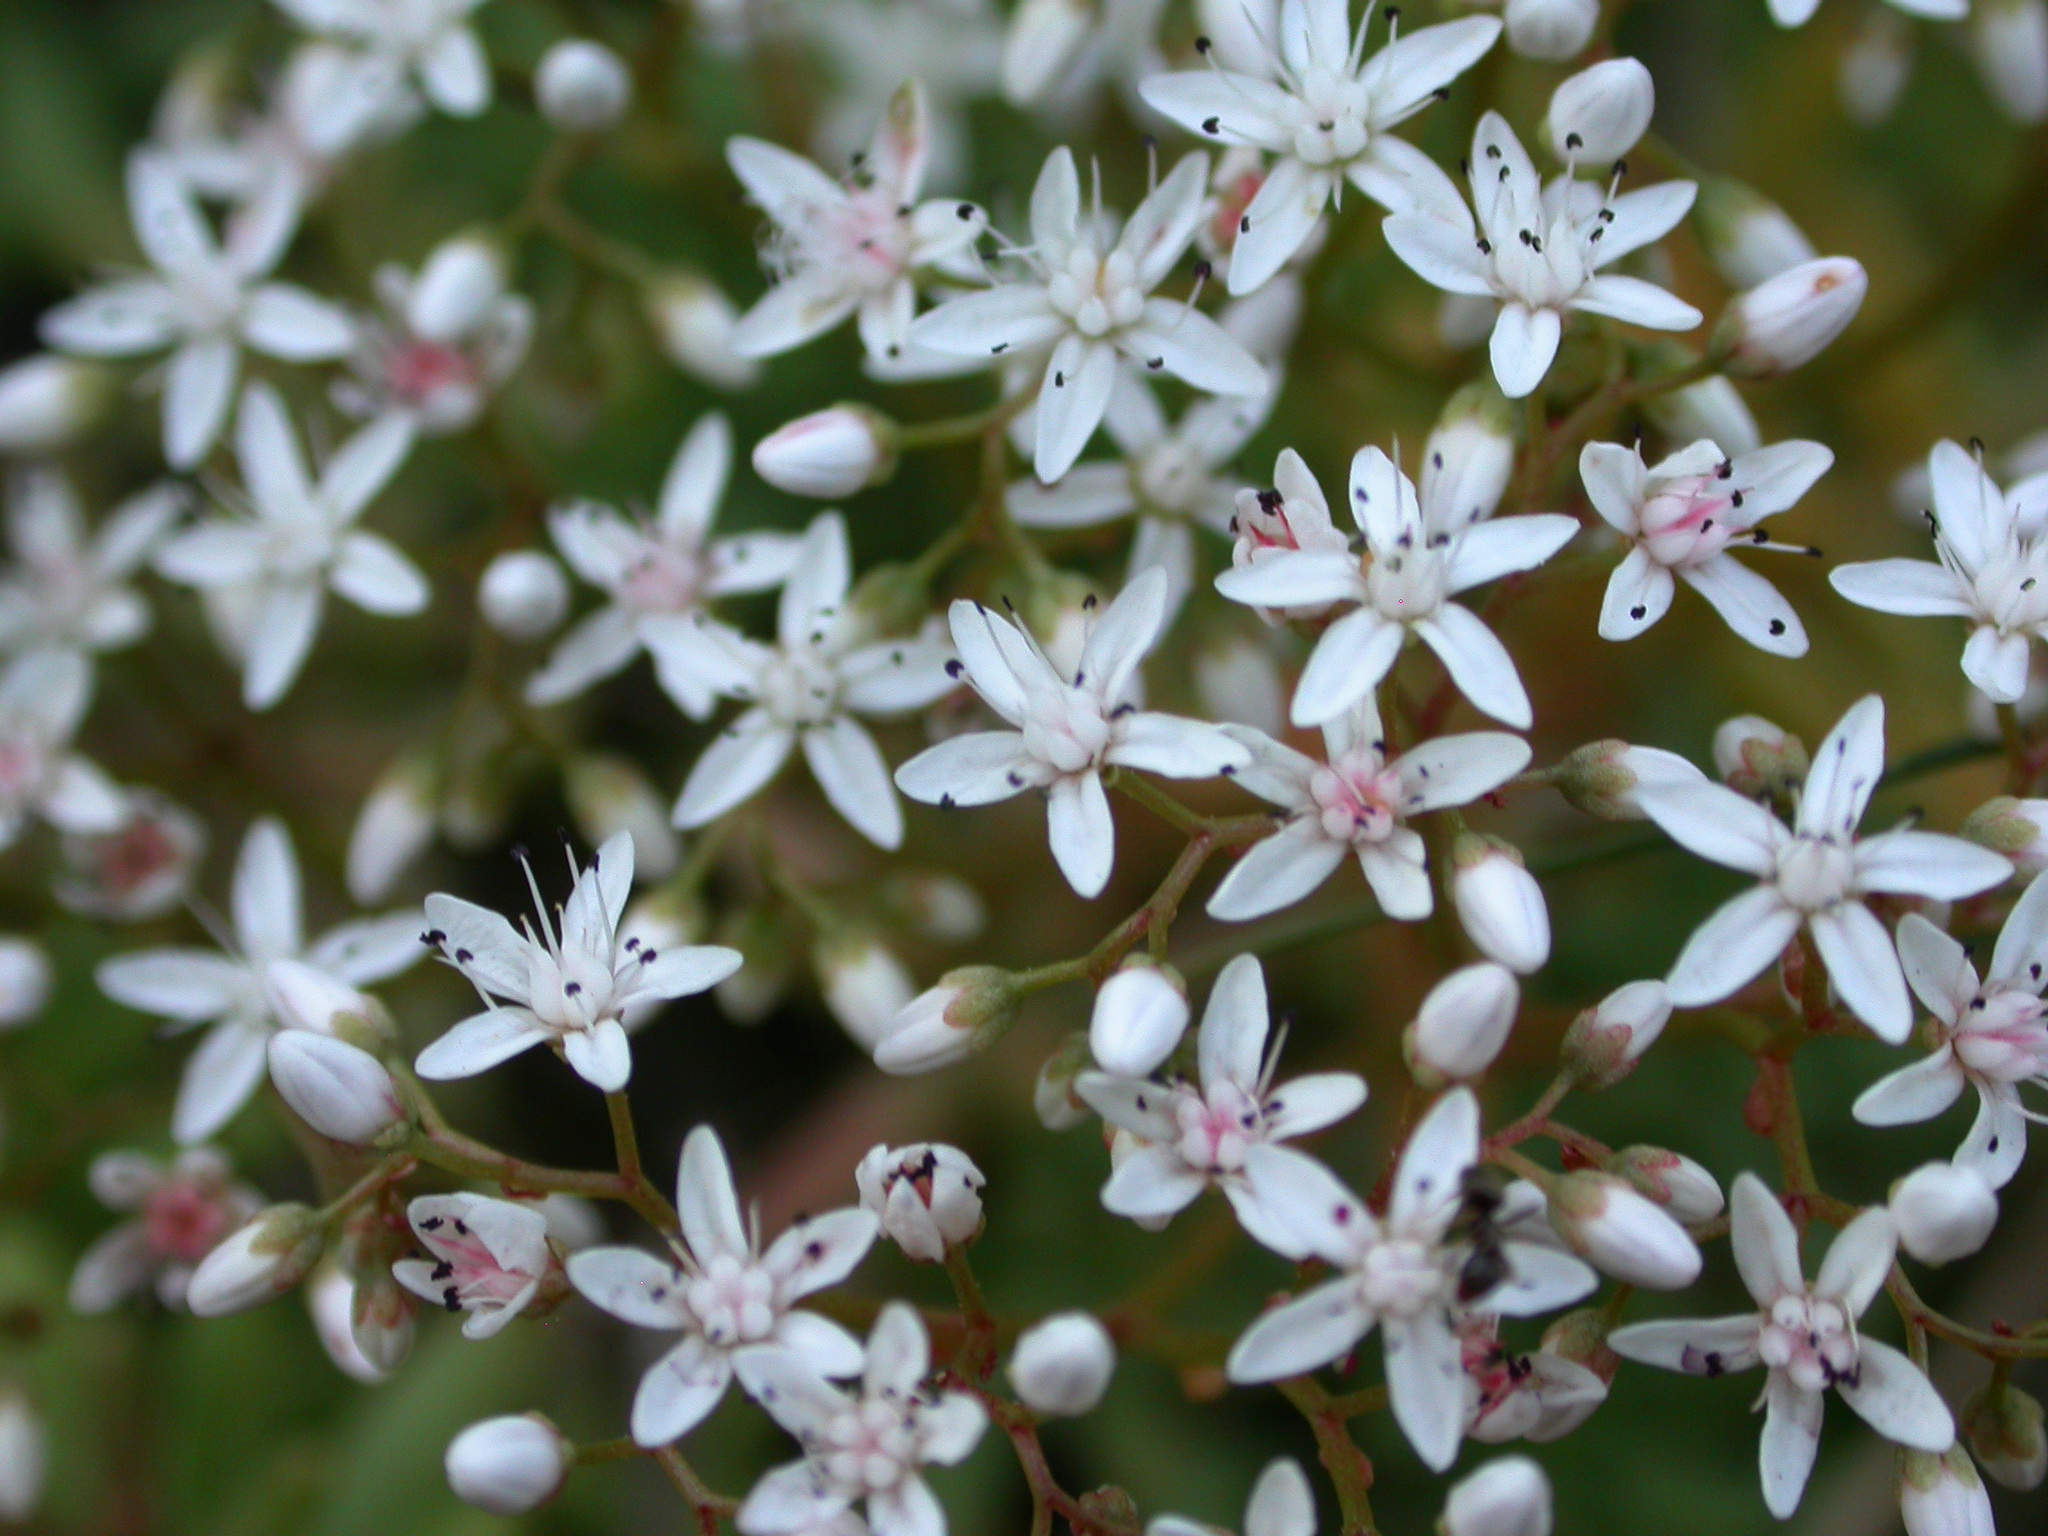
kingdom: Plantae
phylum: Tracheophyta
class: Magnoliopsida
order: Saxifragales
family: Crassulaceae
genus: Sedum
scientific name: Sedum album
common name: White stonecrop
